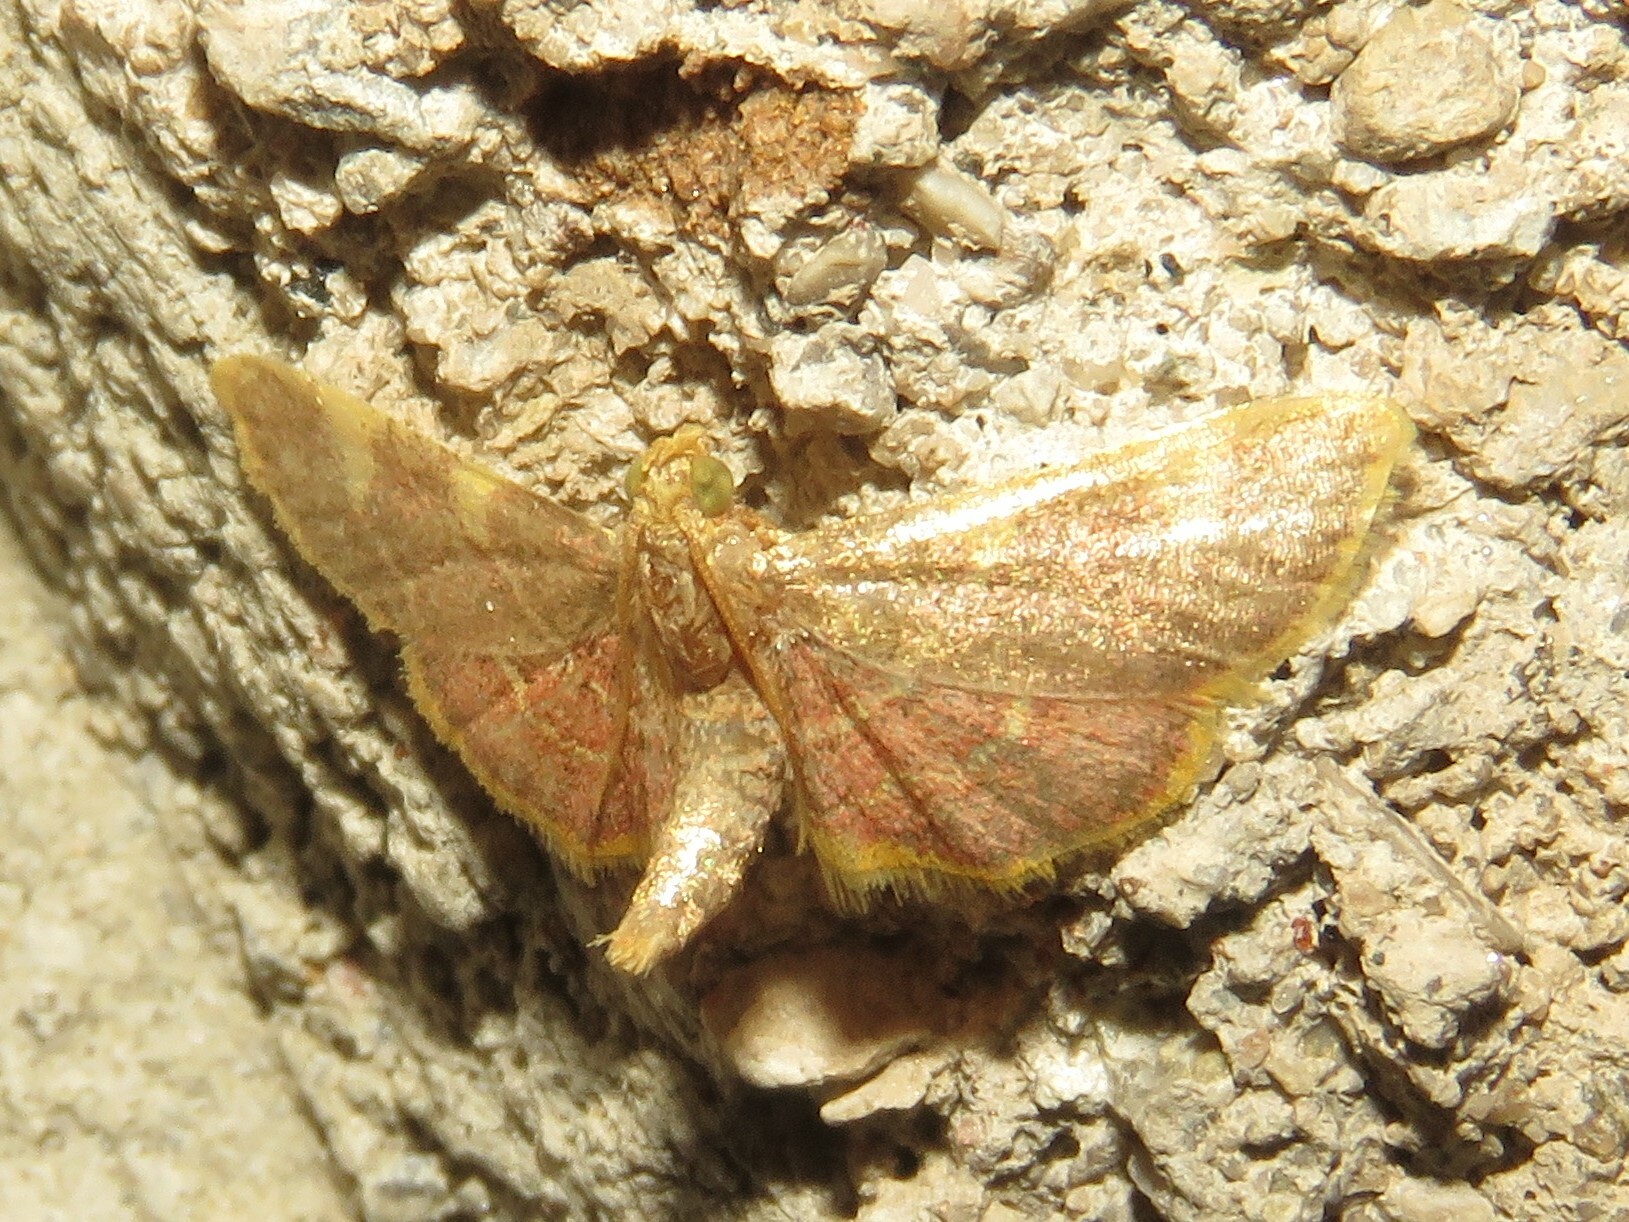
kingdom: Animalia
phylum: Arthropoda
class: Insecta
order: Lepidoptera
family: Pyralidae
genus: Hypsopygia
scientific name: Hypsopygia costalis
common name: Gold triangle
